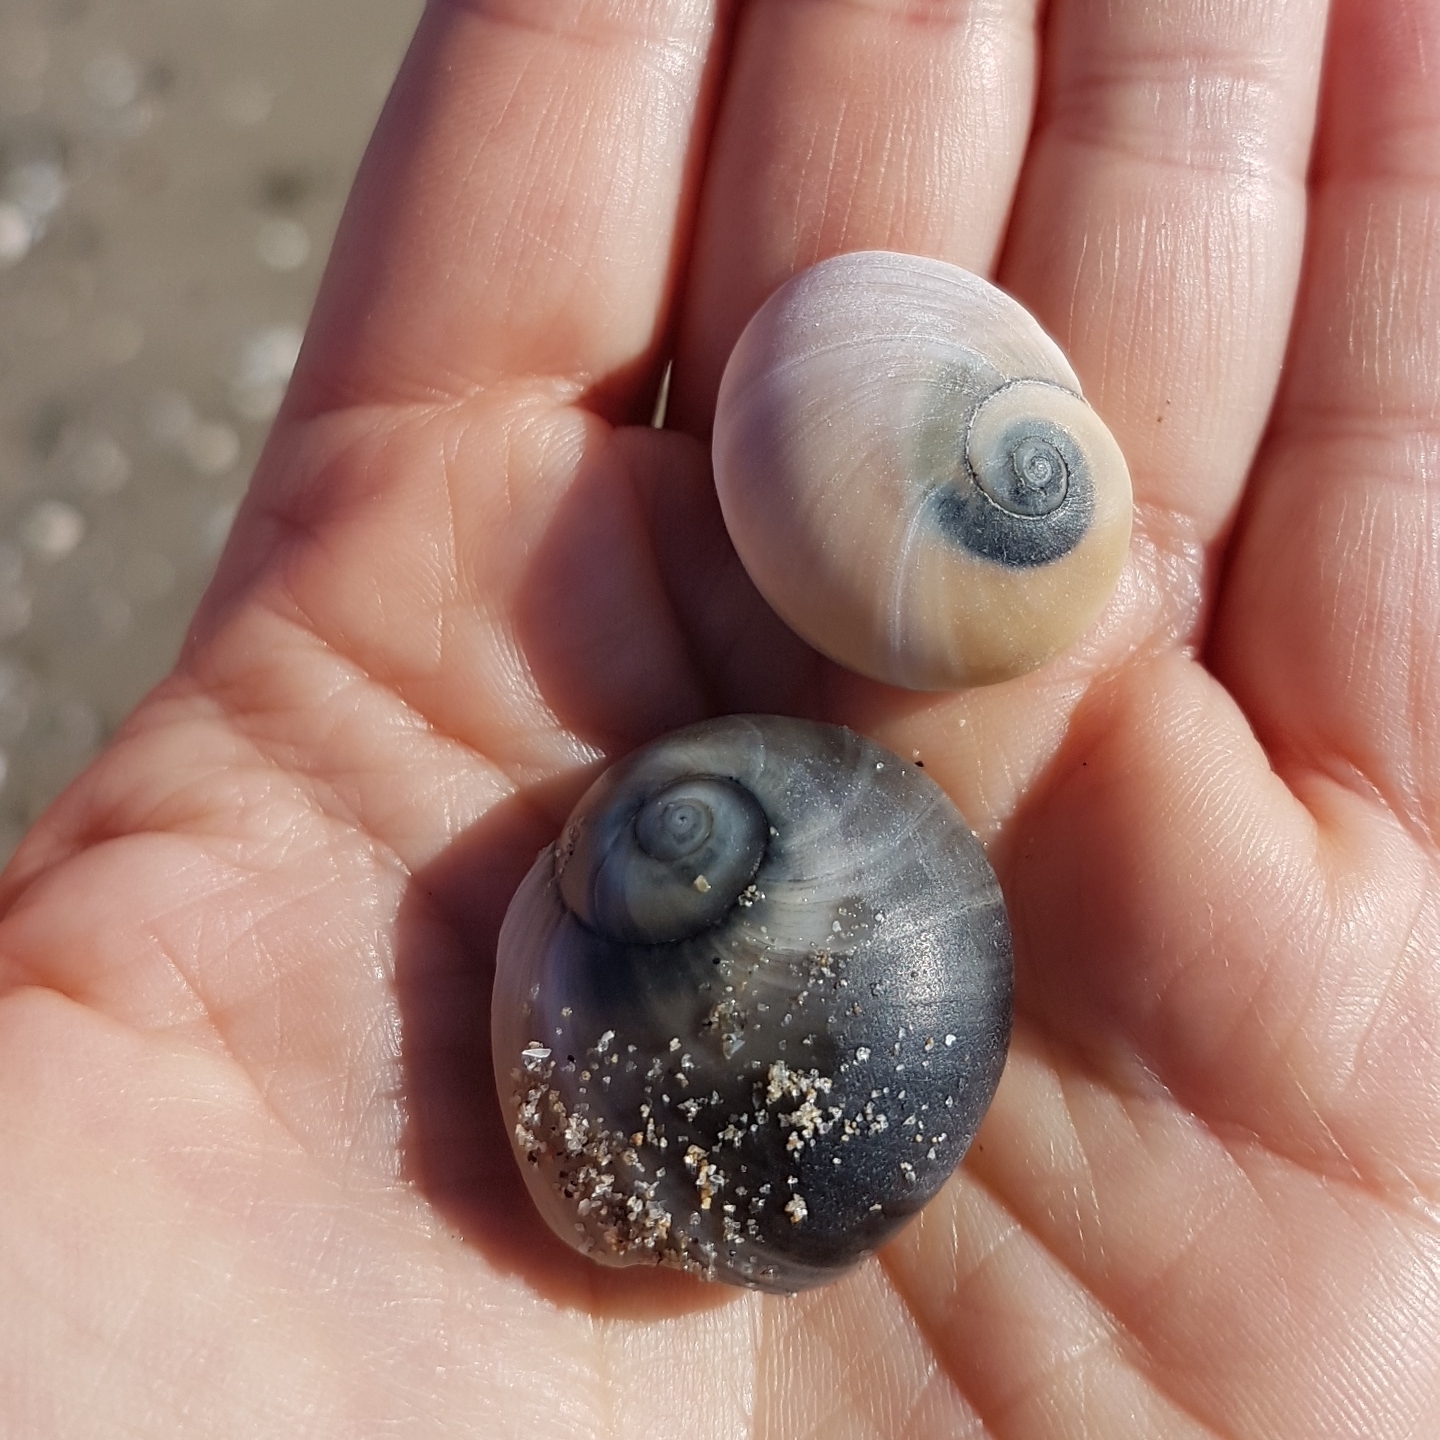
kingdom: Animalia
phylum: Mollusca
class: Gastropoda
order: Littorinimorpha
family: Naticidae
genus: Neverita
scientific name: Neverita josephinia
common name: Josephine's moonsnail
